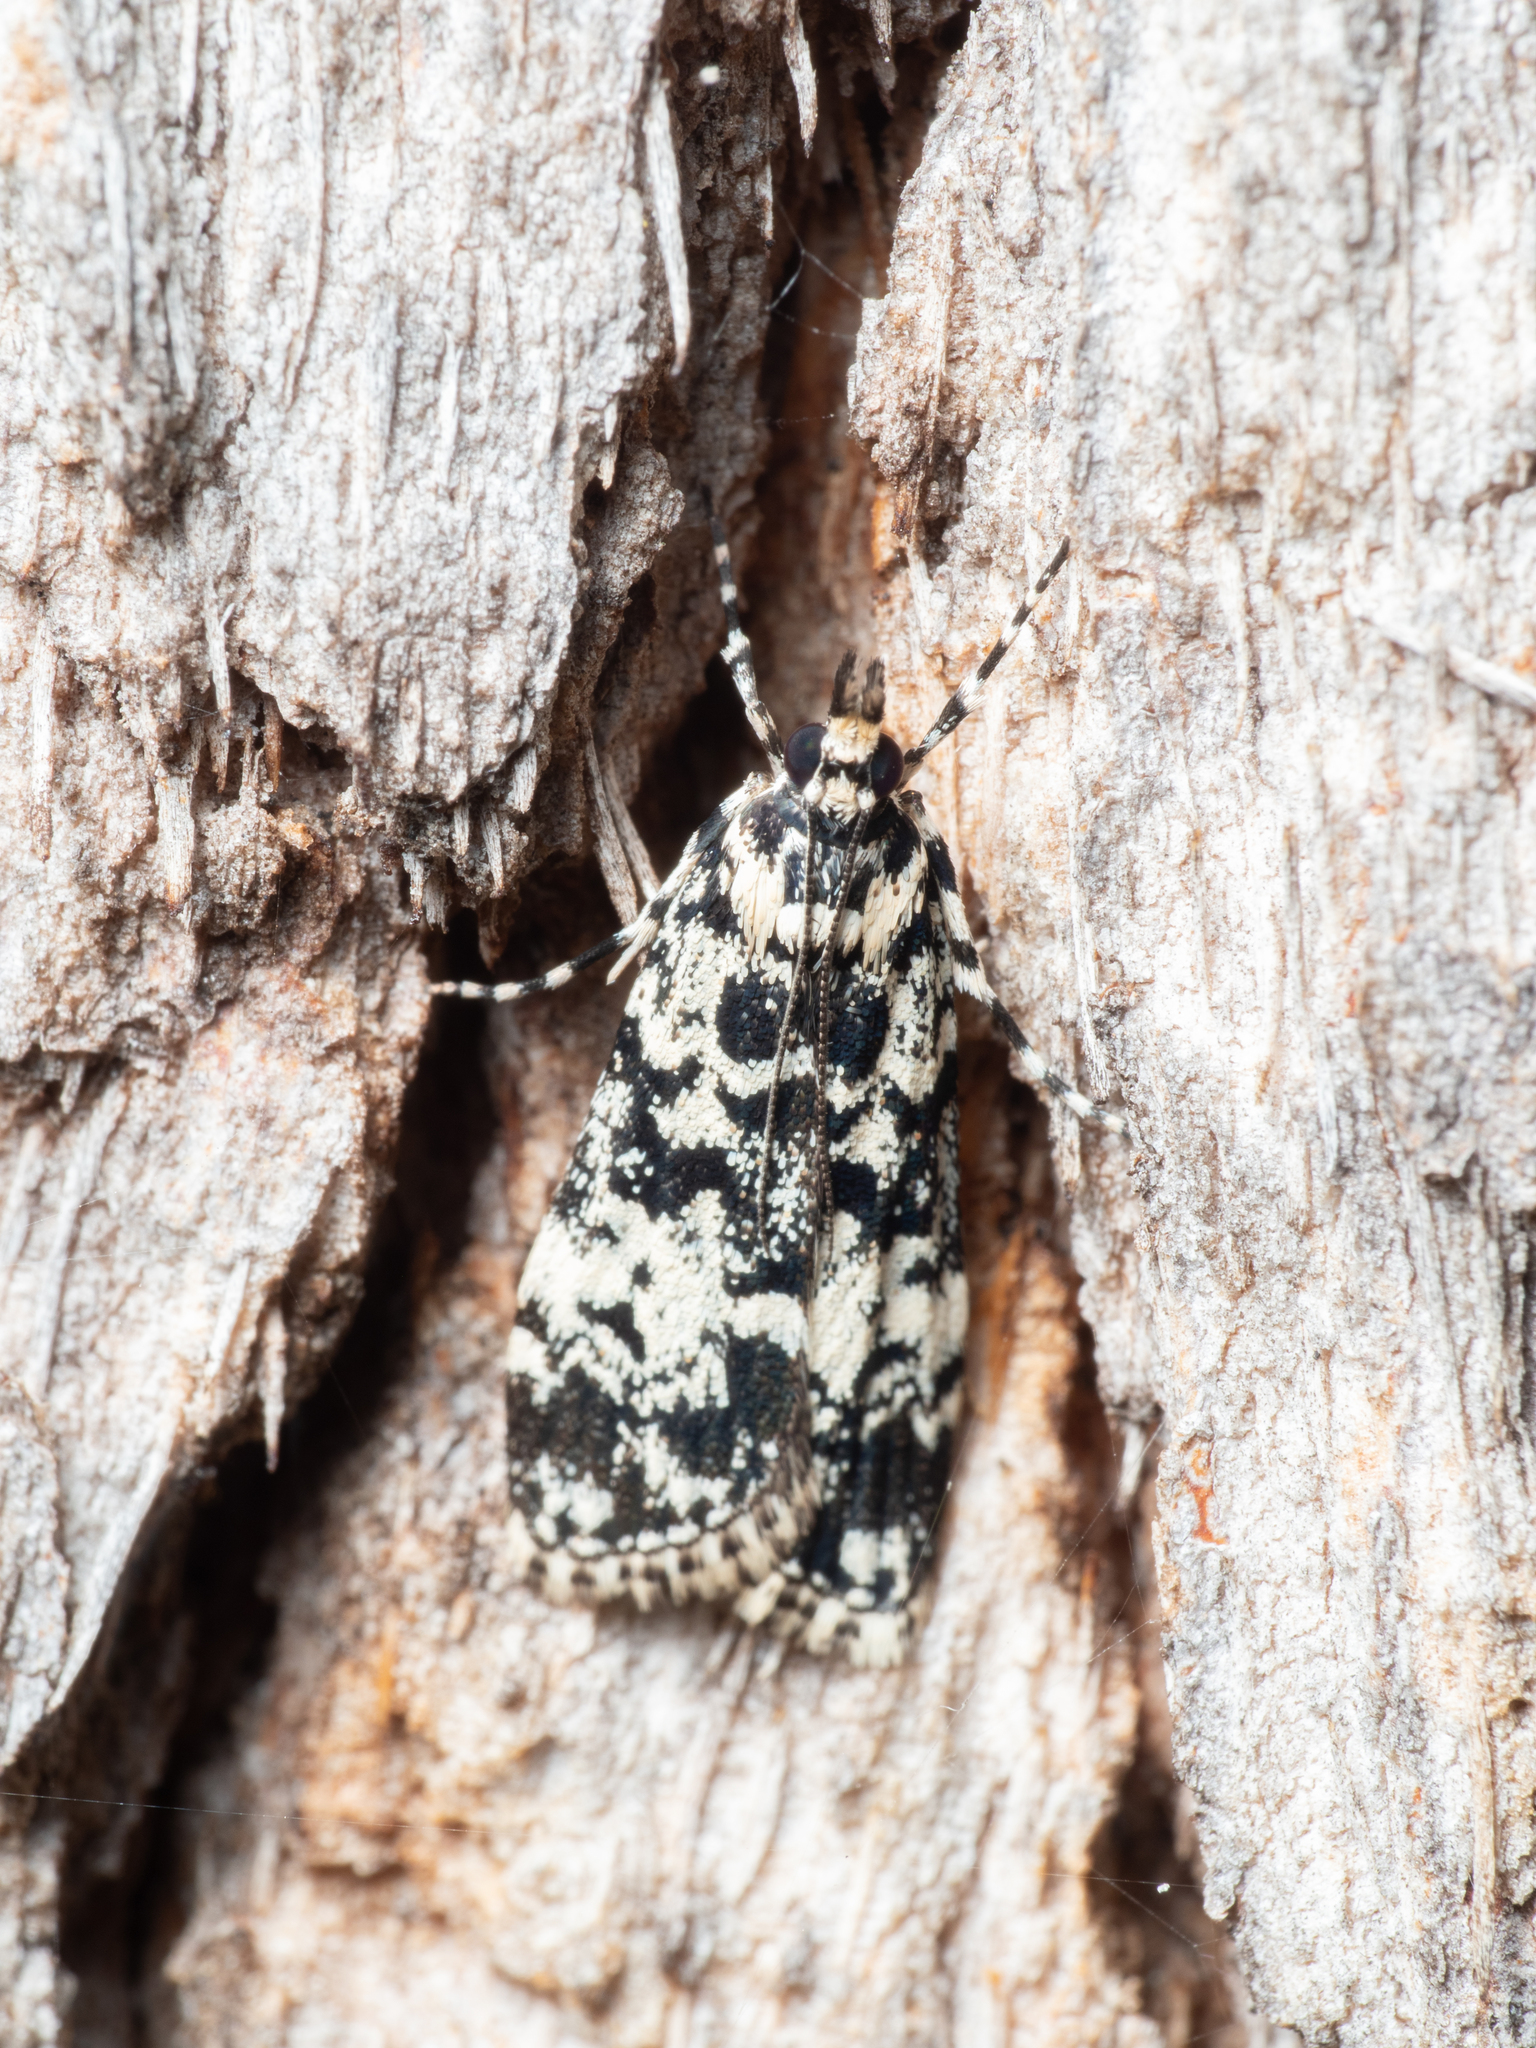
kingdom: Animalia
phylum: Arthropoda
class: Insecta
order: Lepidoptera
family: Crambidae
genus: Scoparia
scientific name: Scoparia exhibitalis
